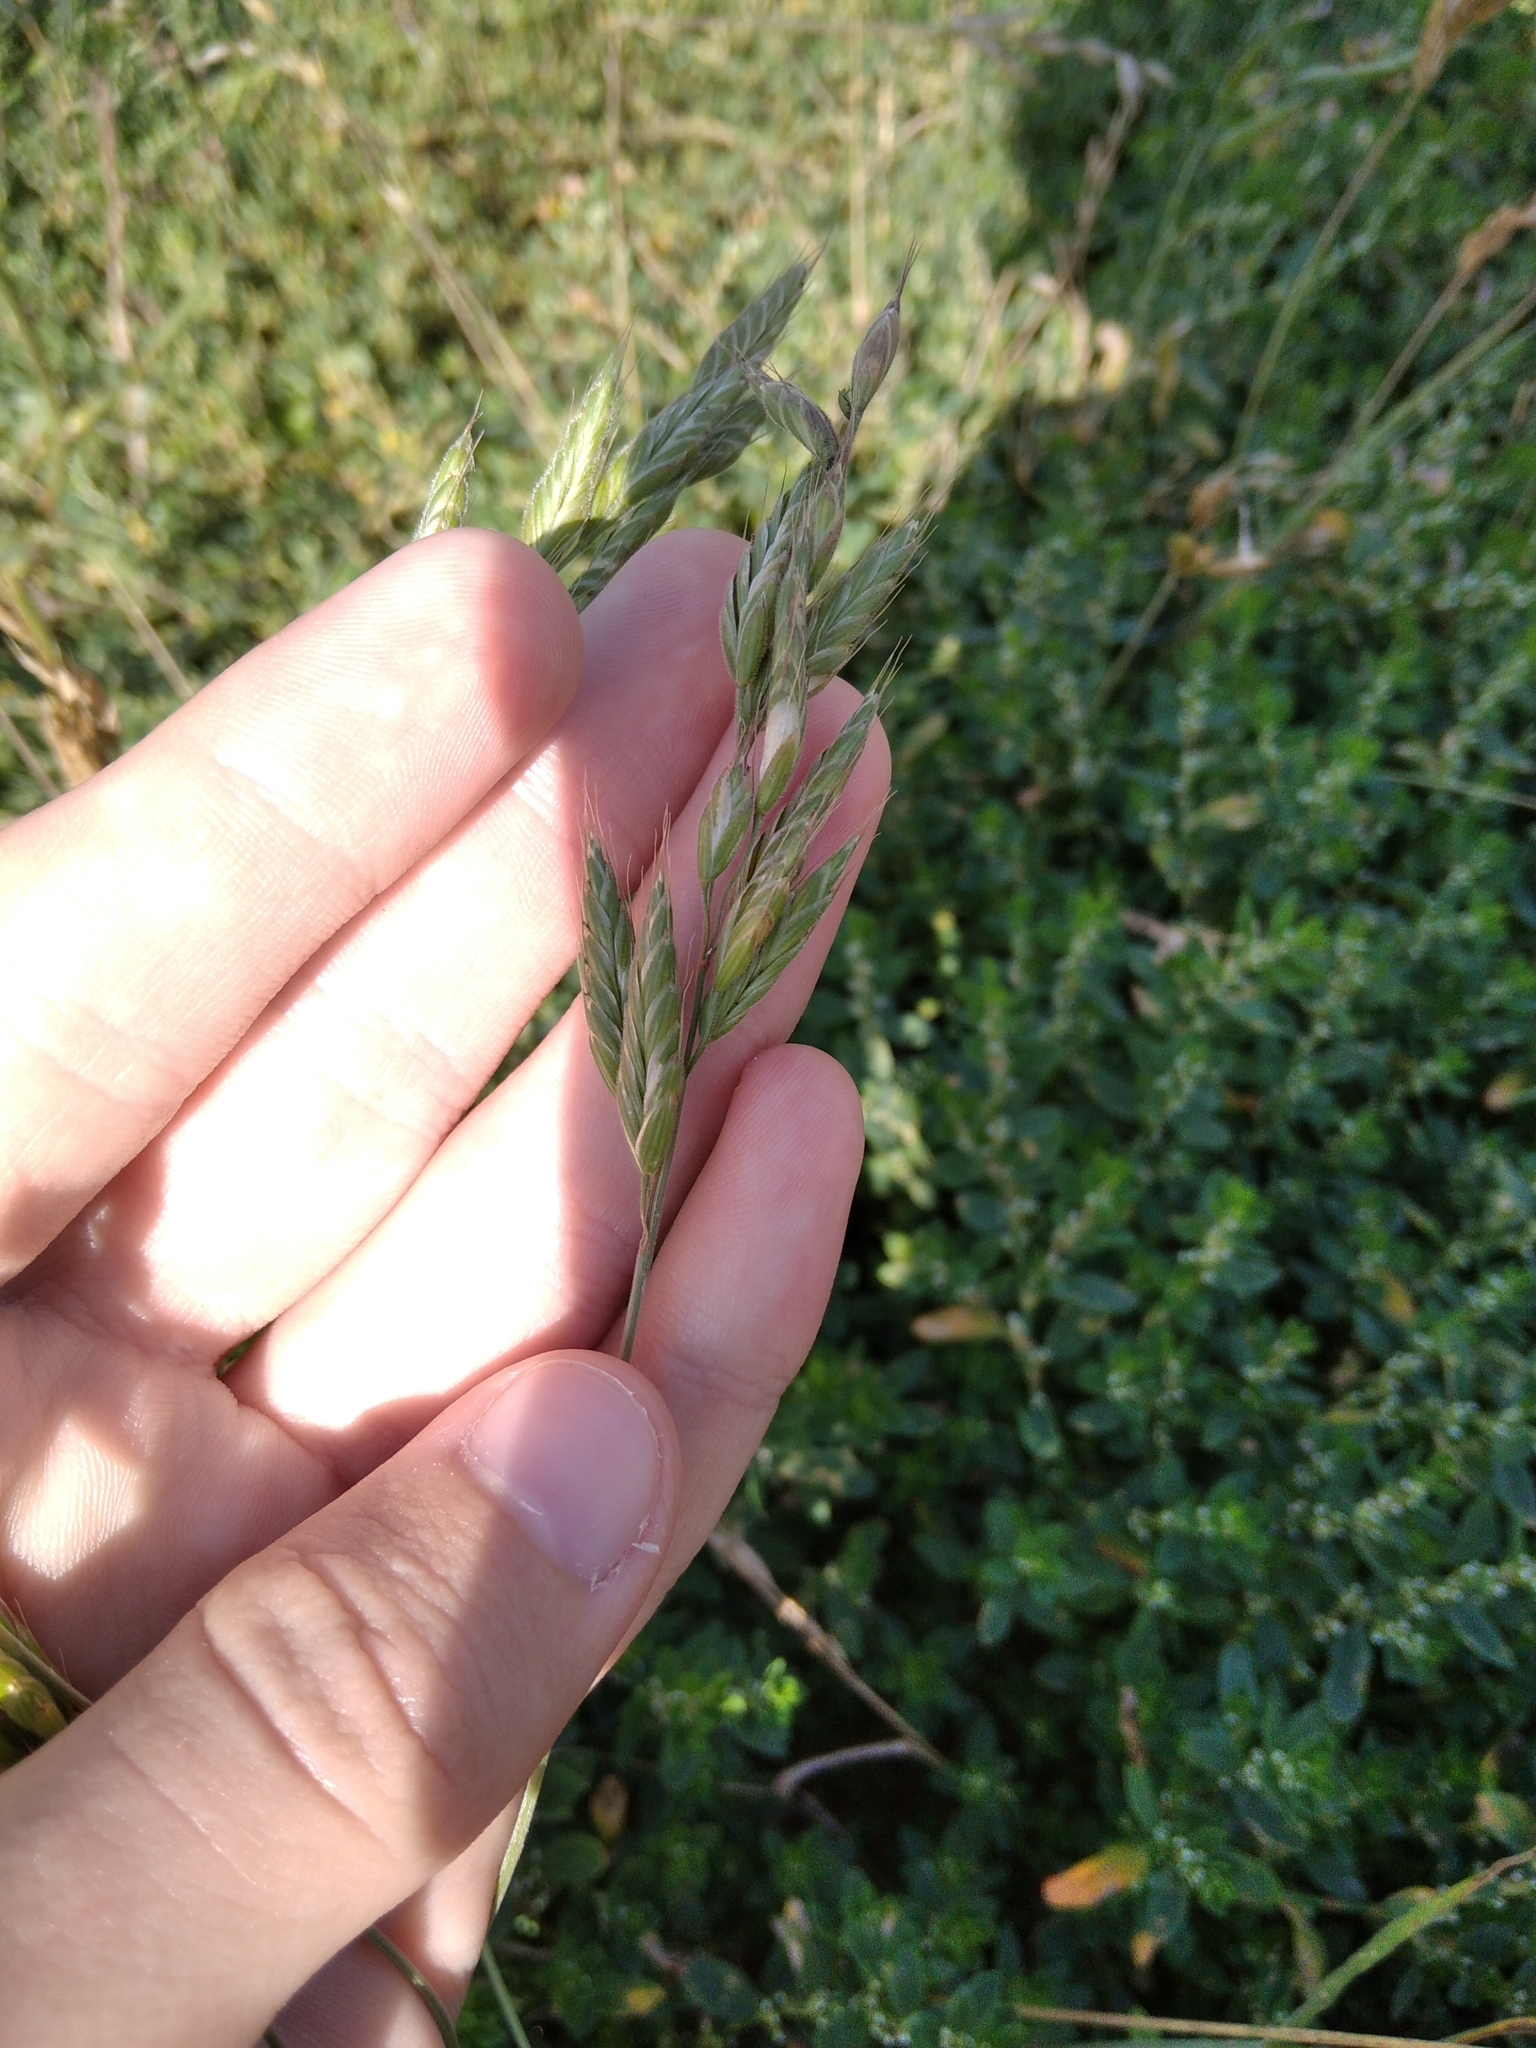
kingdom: Plantae
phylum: Tracheophyta
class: Liliopsida
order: Poales
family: Poaceae
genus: Bromus
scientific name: Bromus hordeaceus
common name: Soft brome
